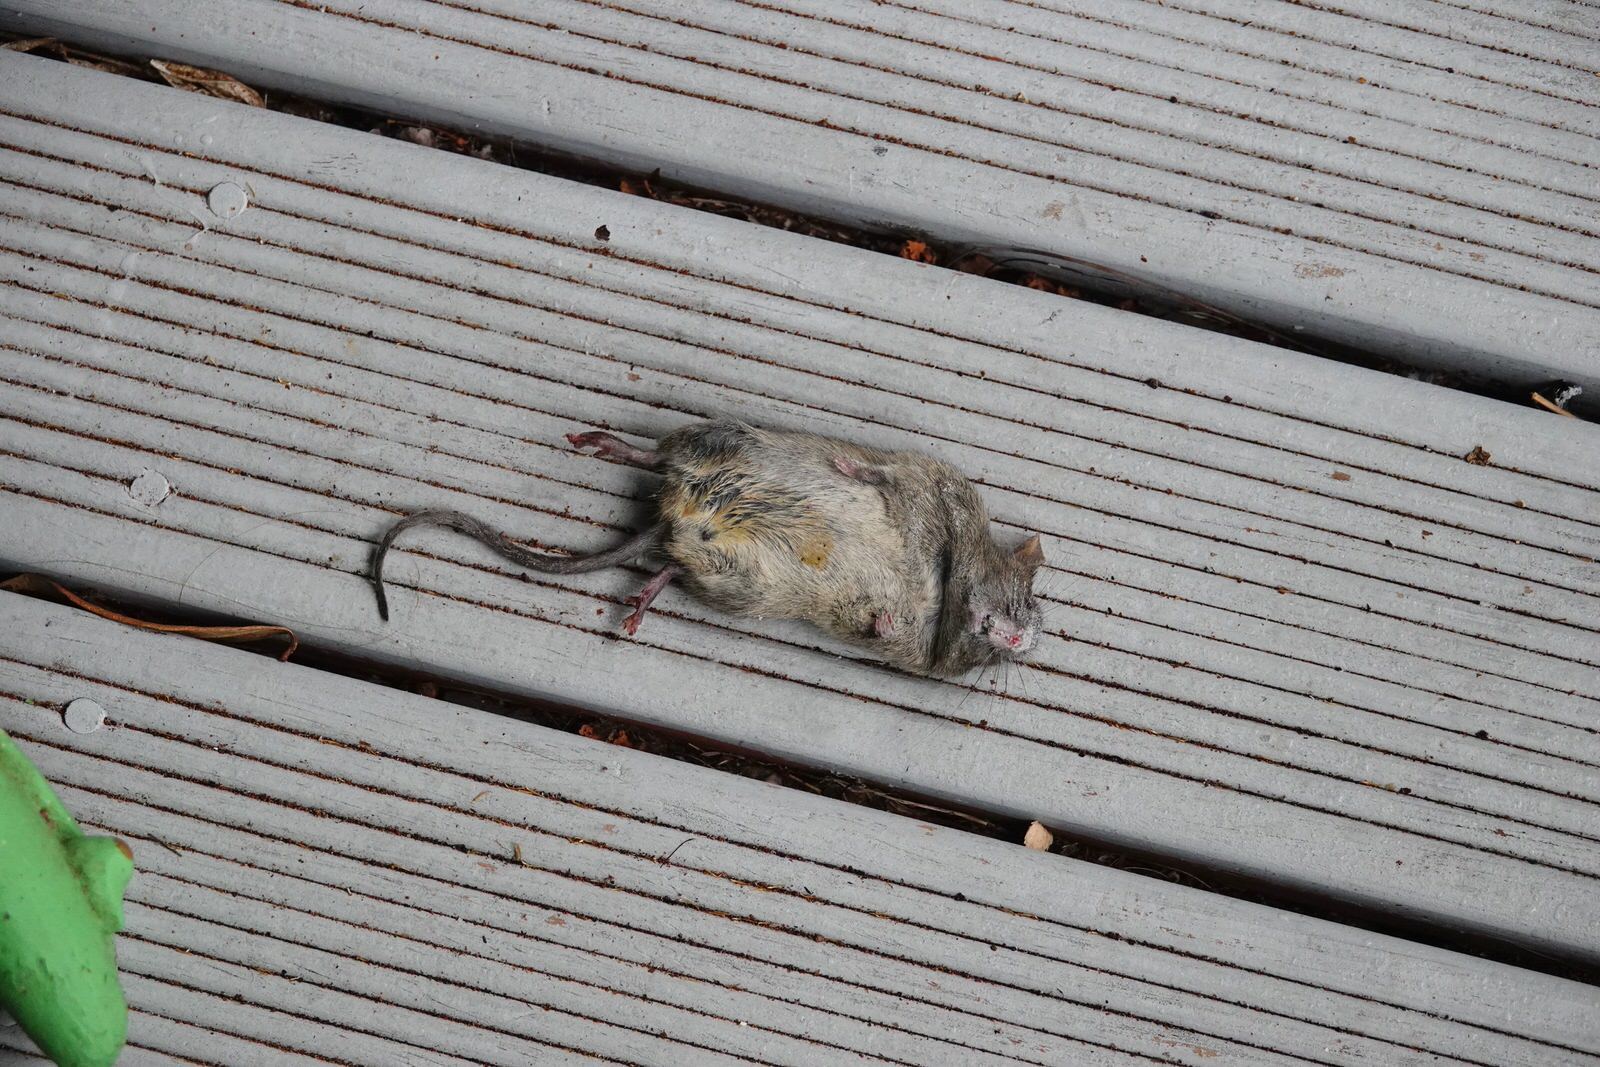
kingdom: Animalia
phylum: Chordata
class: Mammalia
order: Rodentia
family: Muridae
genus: Mus
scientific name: Mus musculus
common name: House mouse
